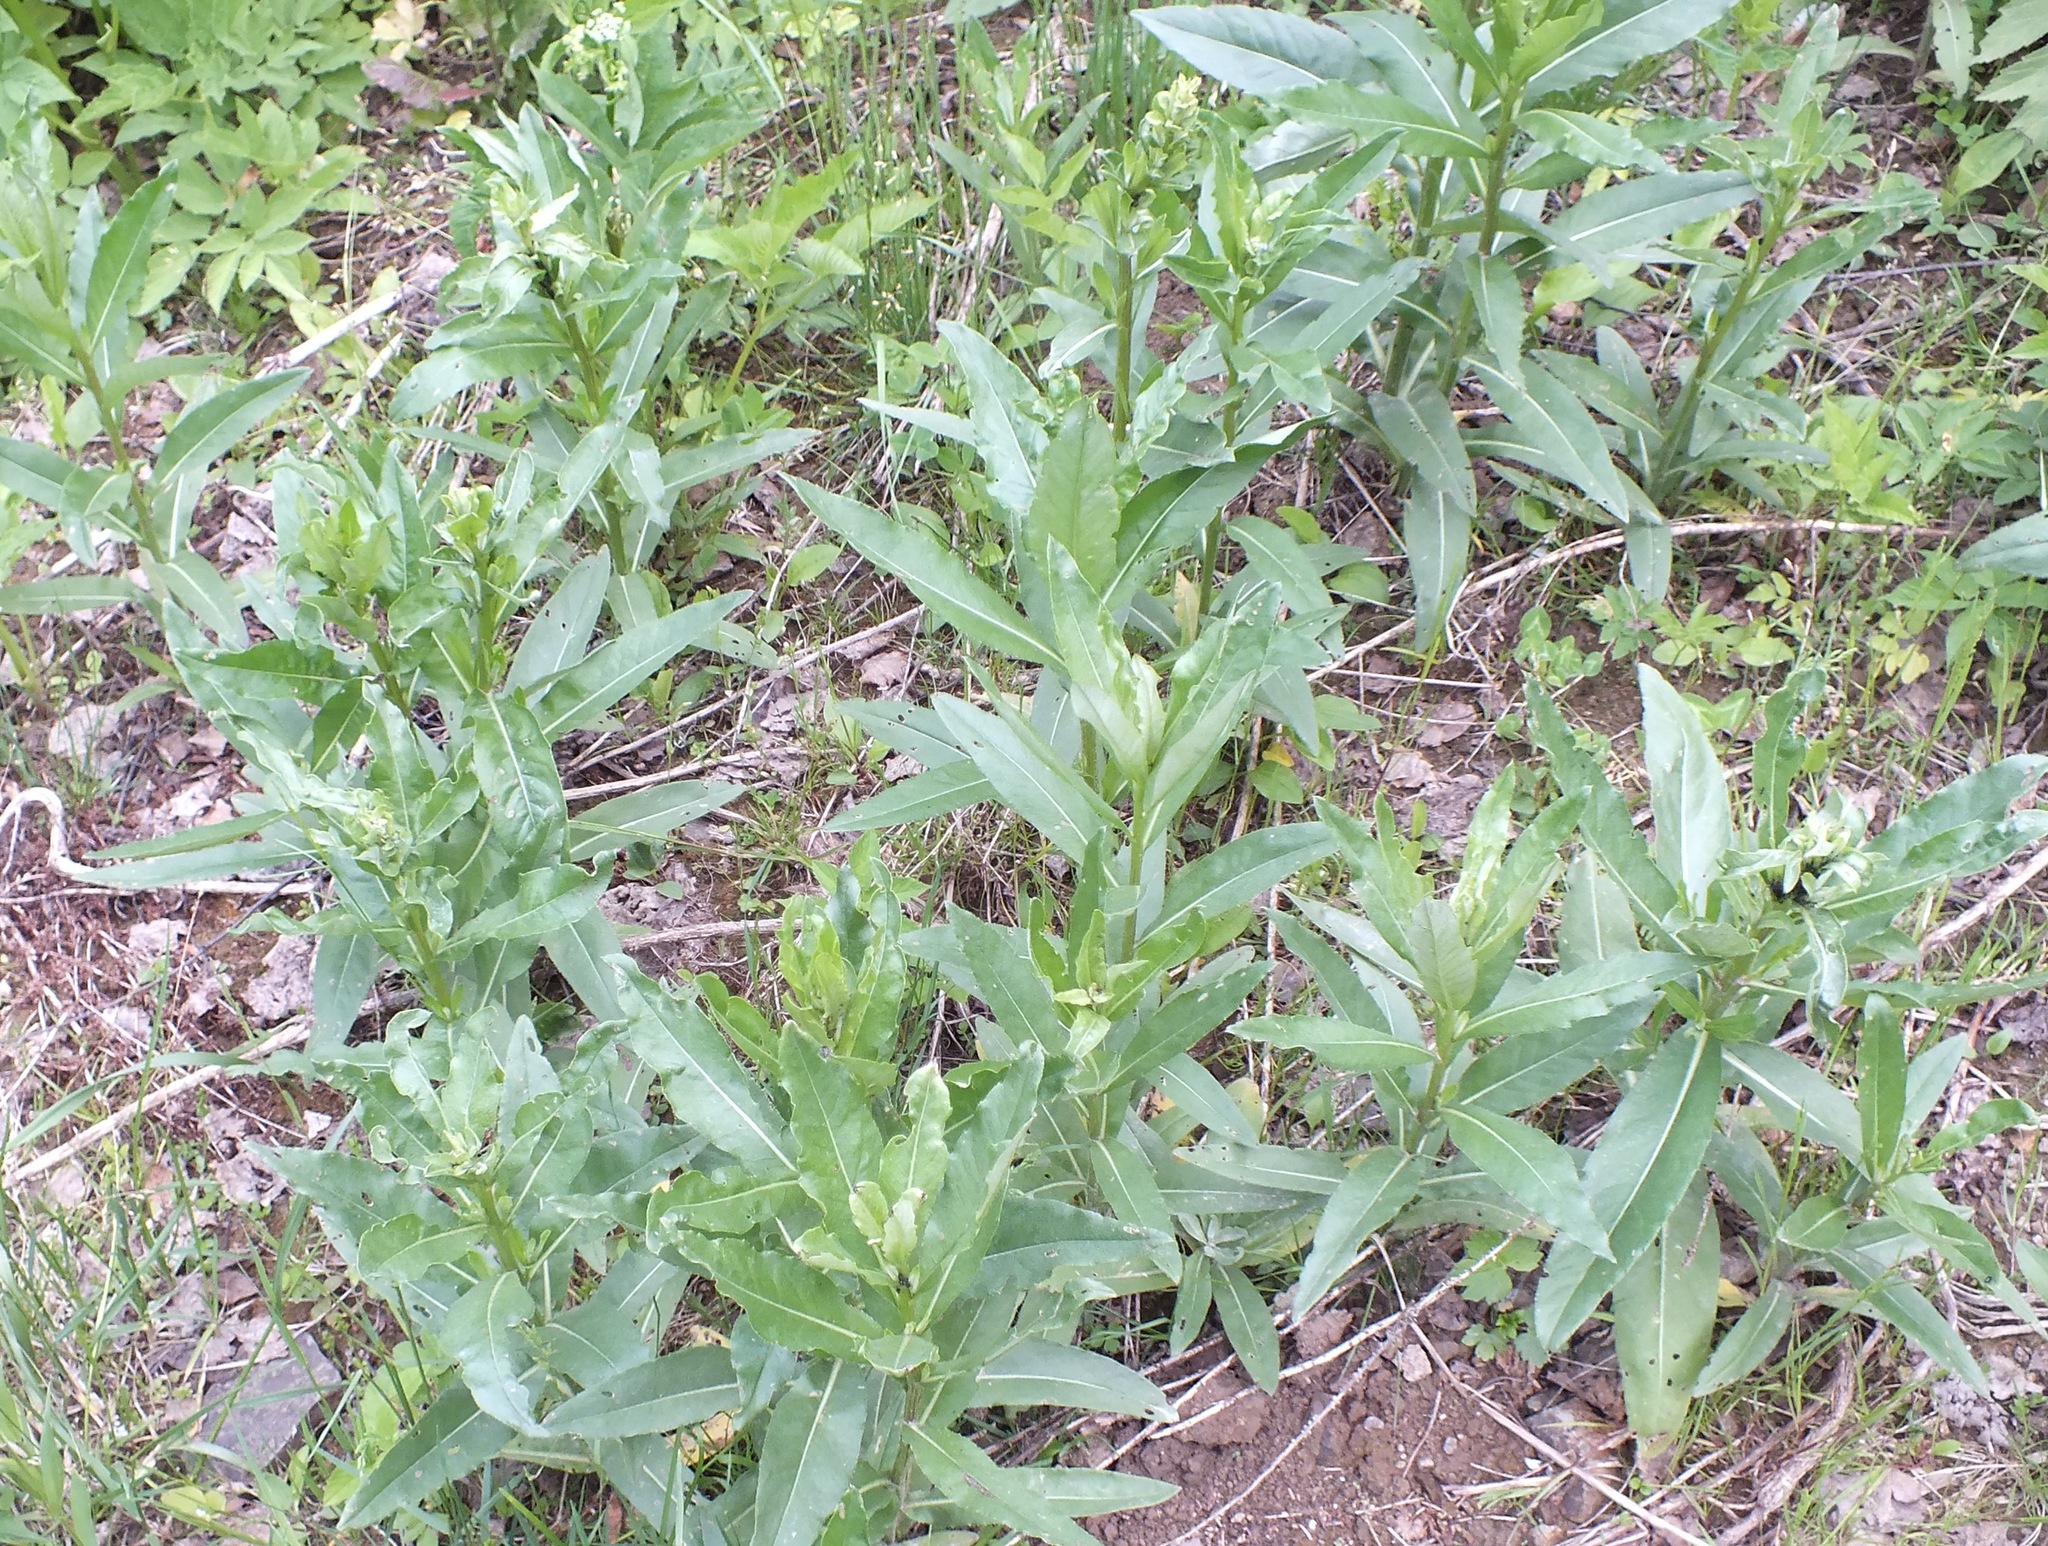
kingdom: Plantae
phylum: Tracheophyta
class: Magnoliopsida
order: Asterales
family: Asteraceae
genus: Cirsium
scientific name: Cirsium arvense
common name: Creeping thistle
